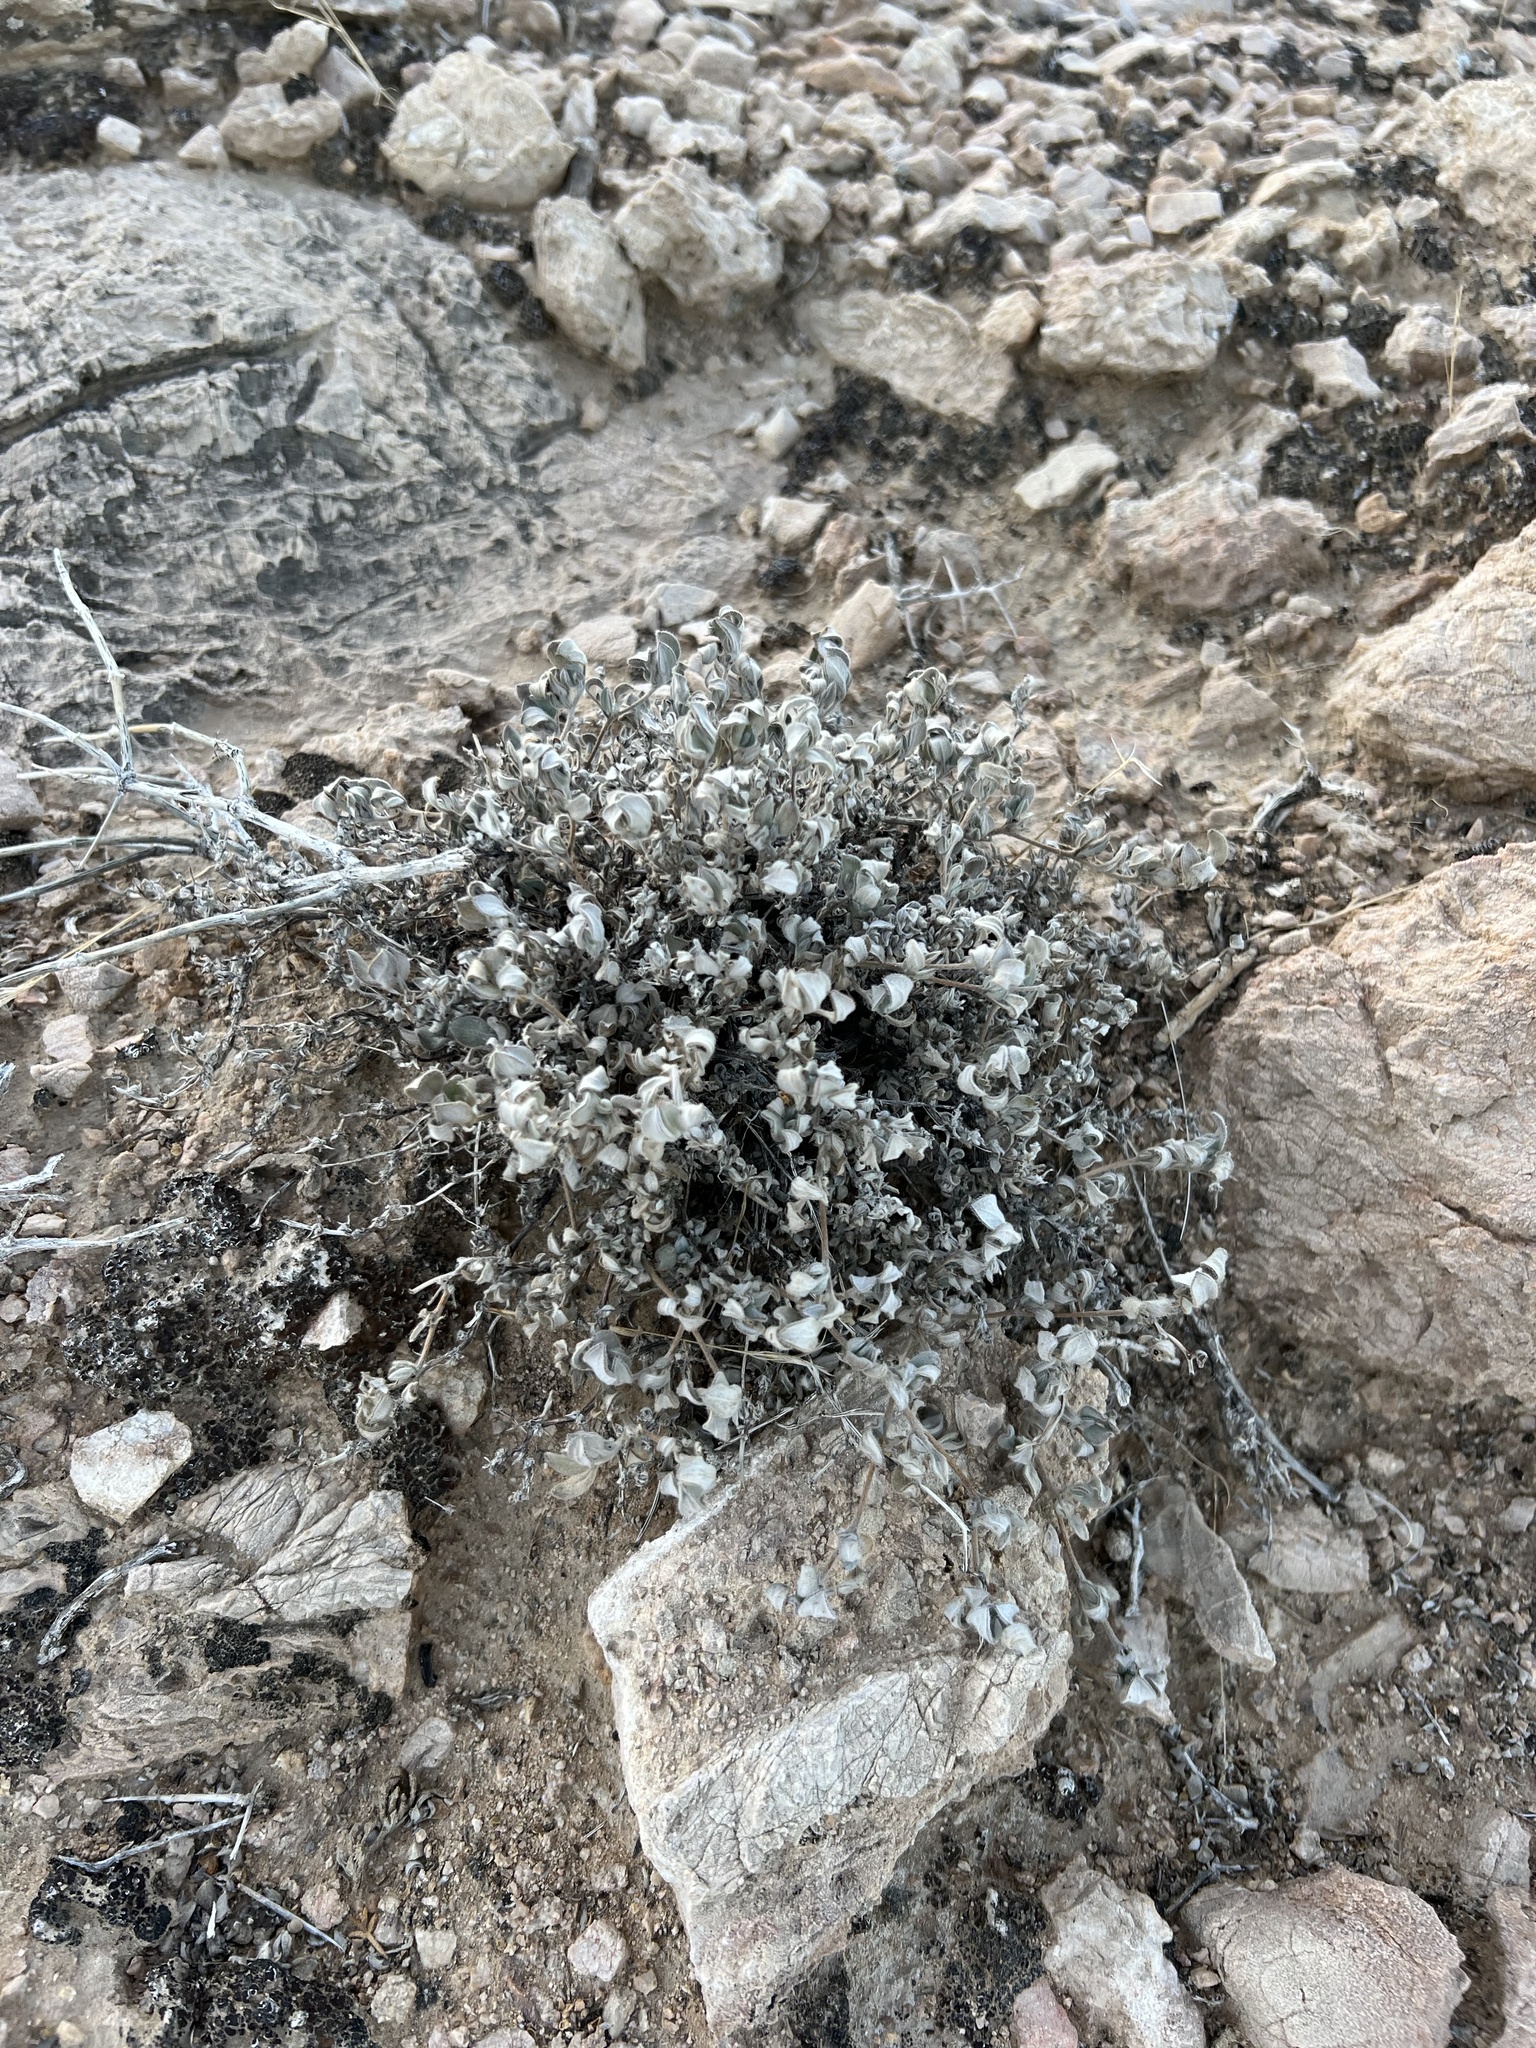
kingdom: Plantae
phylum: Tracheophyta
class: Magnoliopsida
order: Boraginales
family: Ehretiaceae
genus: Tiquilia
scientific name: Tiquilia canescens
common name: Hairy tiquilia
